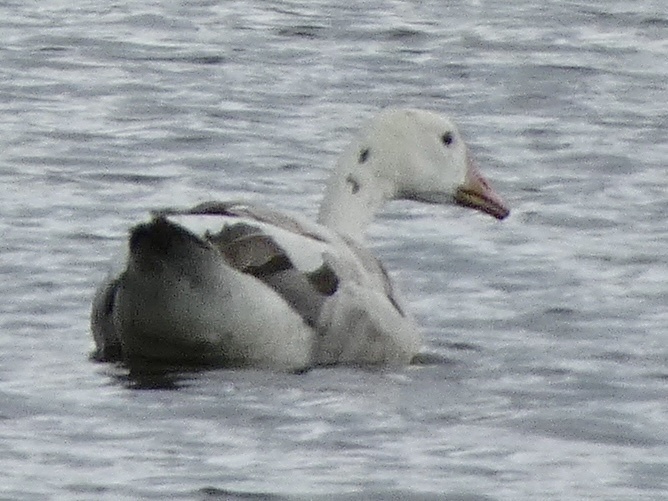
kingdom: Animalia
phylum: Chordata
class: Aves
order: Anseriformes
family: Anatidae
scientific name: Anatidae
